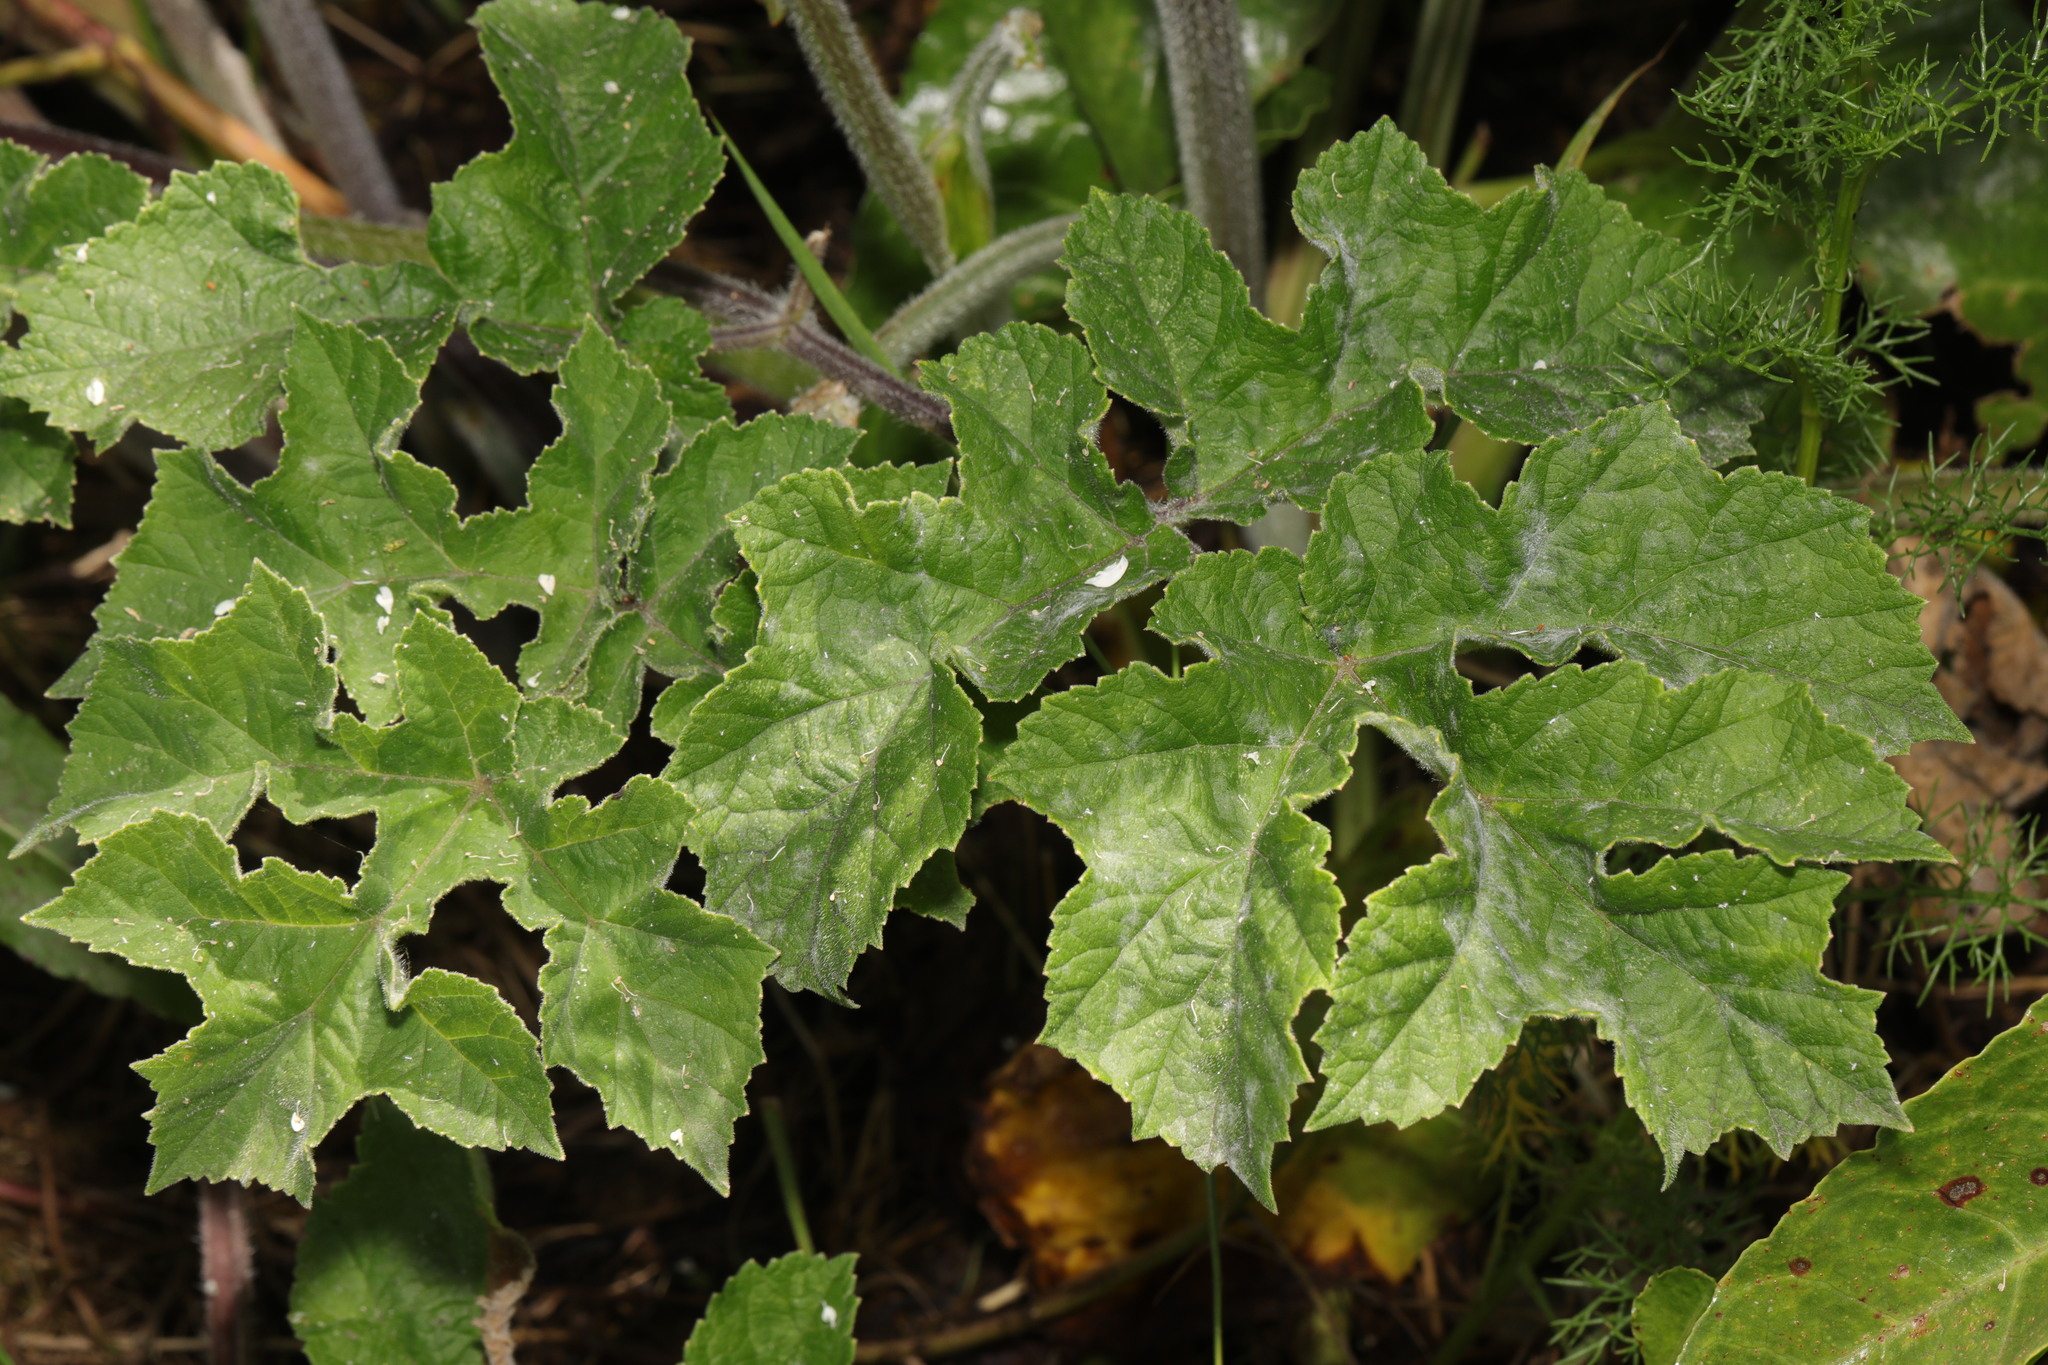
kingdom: Plantae
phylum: Tracheophyta
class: Magnoliopsida
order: Apiales
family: Apiaceae
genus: Heracleum
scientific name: Heracleum sphondylium
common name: Hogweed
